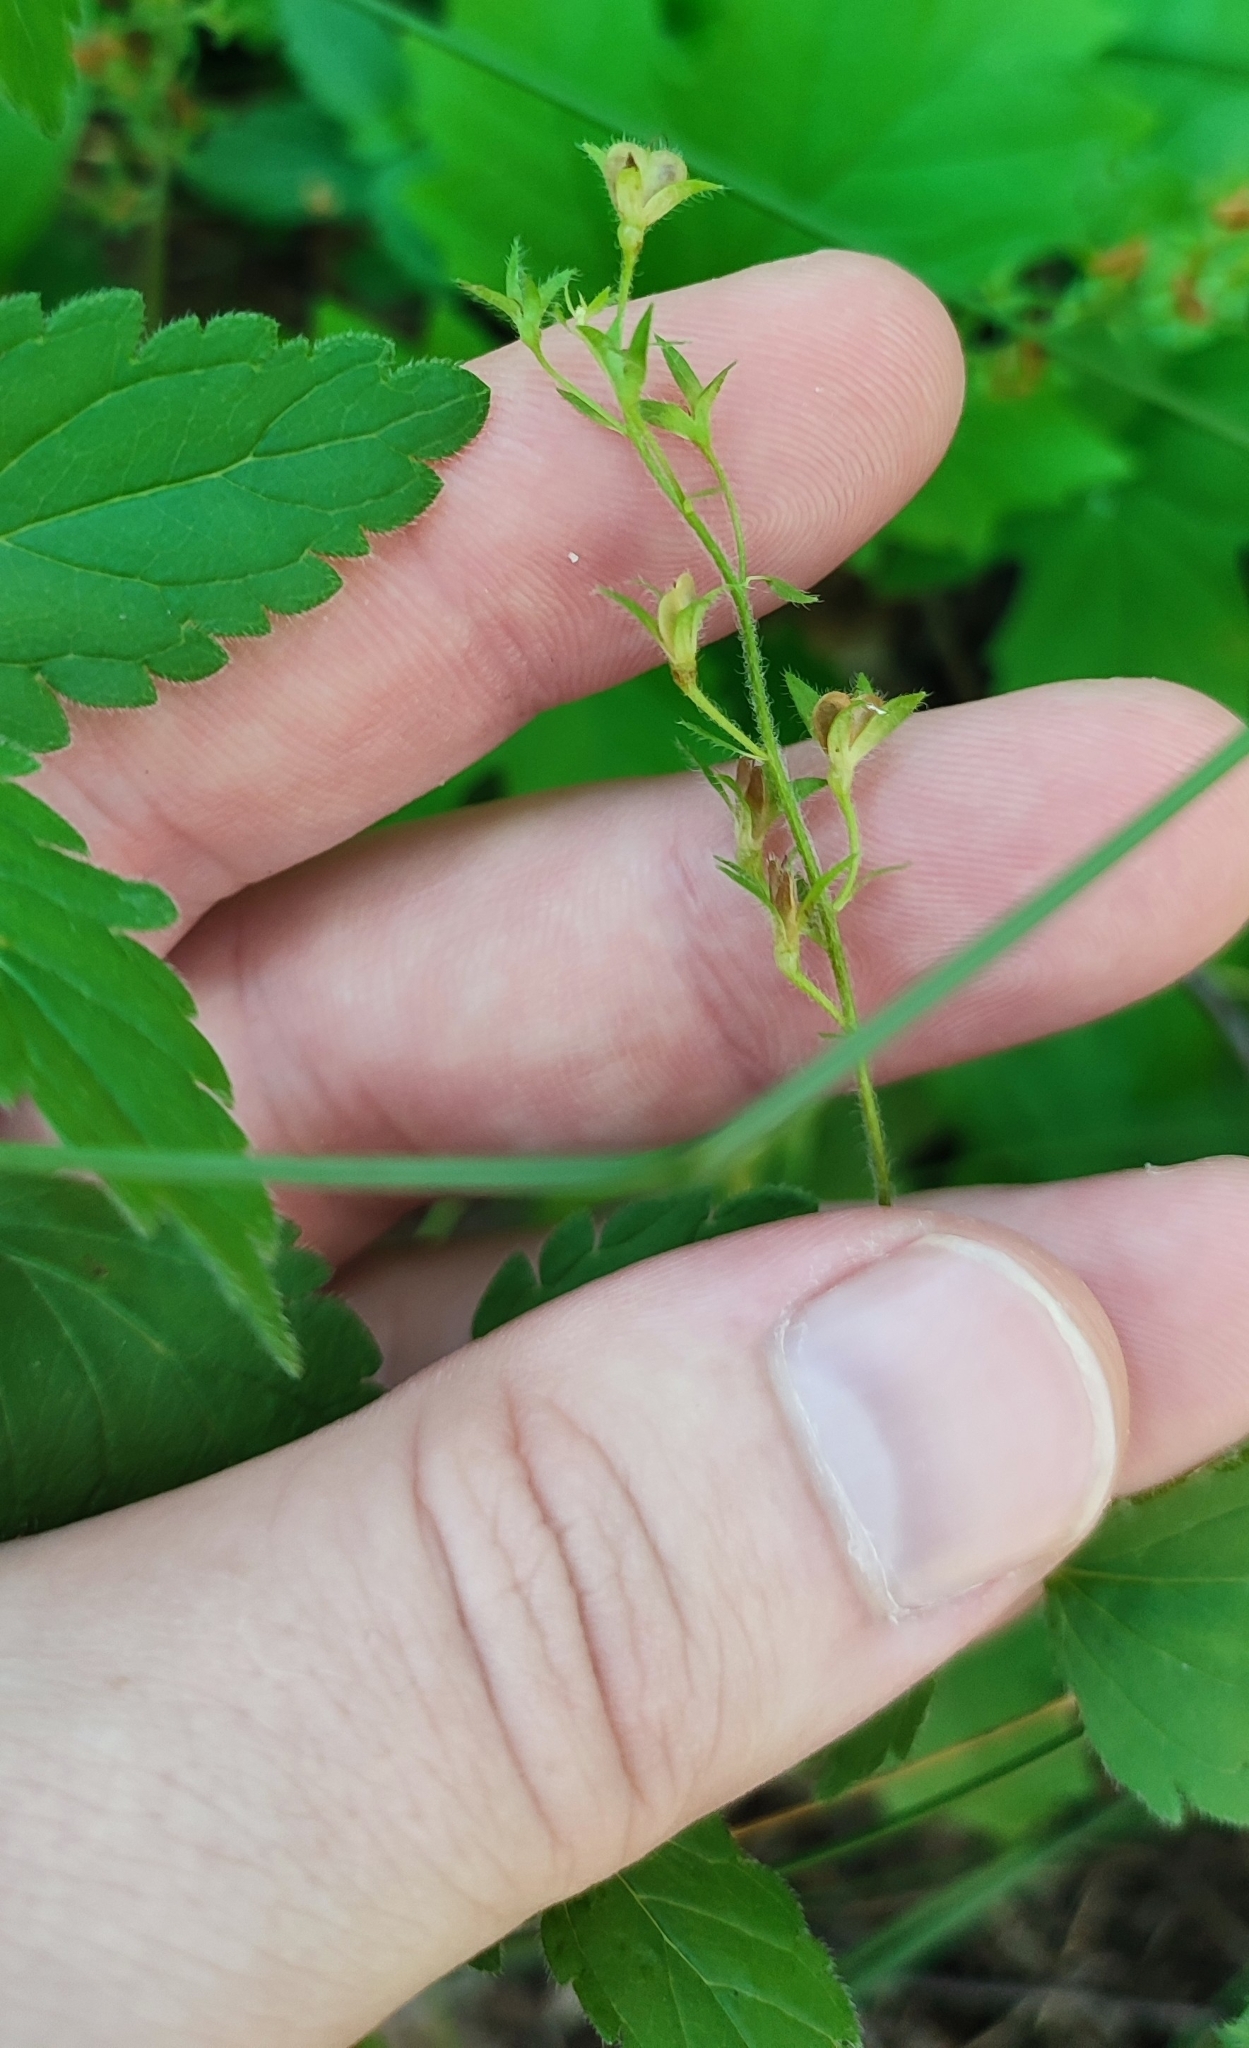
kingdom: Plantae
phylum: Tracheophyta
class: Magnoliopsida
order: Lamiales
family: Plantaginaceae
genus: Veronica
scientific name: Veronica chamaedrys
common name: Germander speedwell
